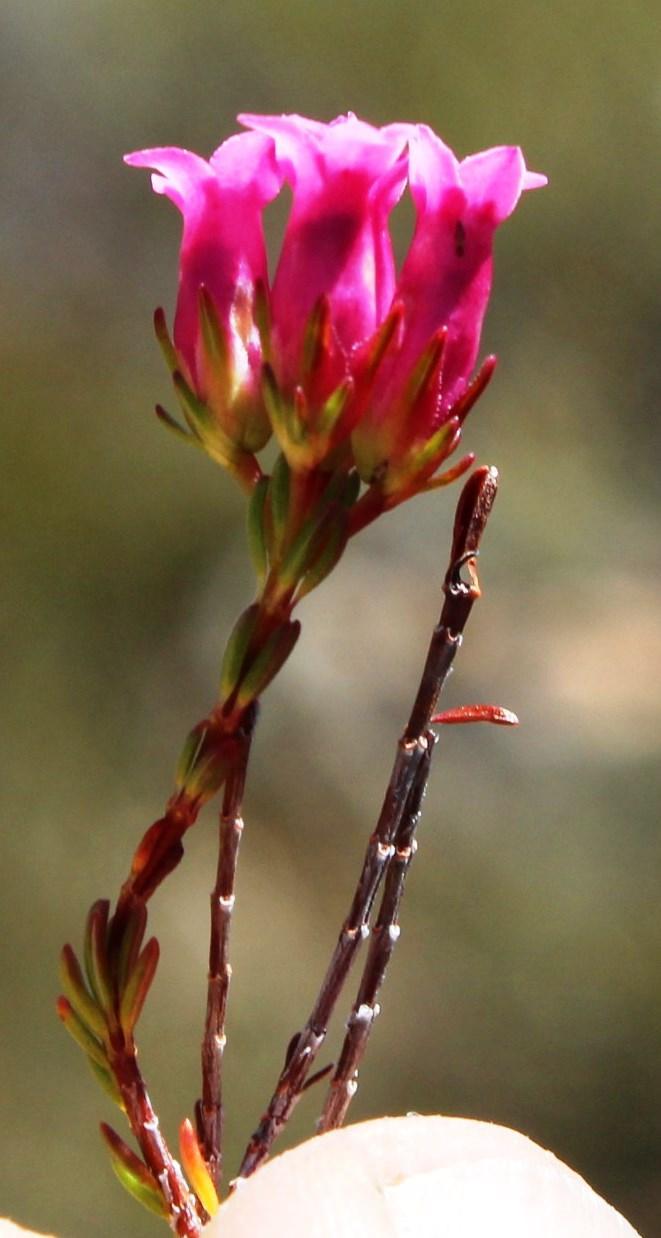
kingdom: Plantae
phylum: Tracheophyta
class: Magnoliopsida
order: Ericales
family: Ericaceae
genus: Erica
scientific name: Erica daphniflora
